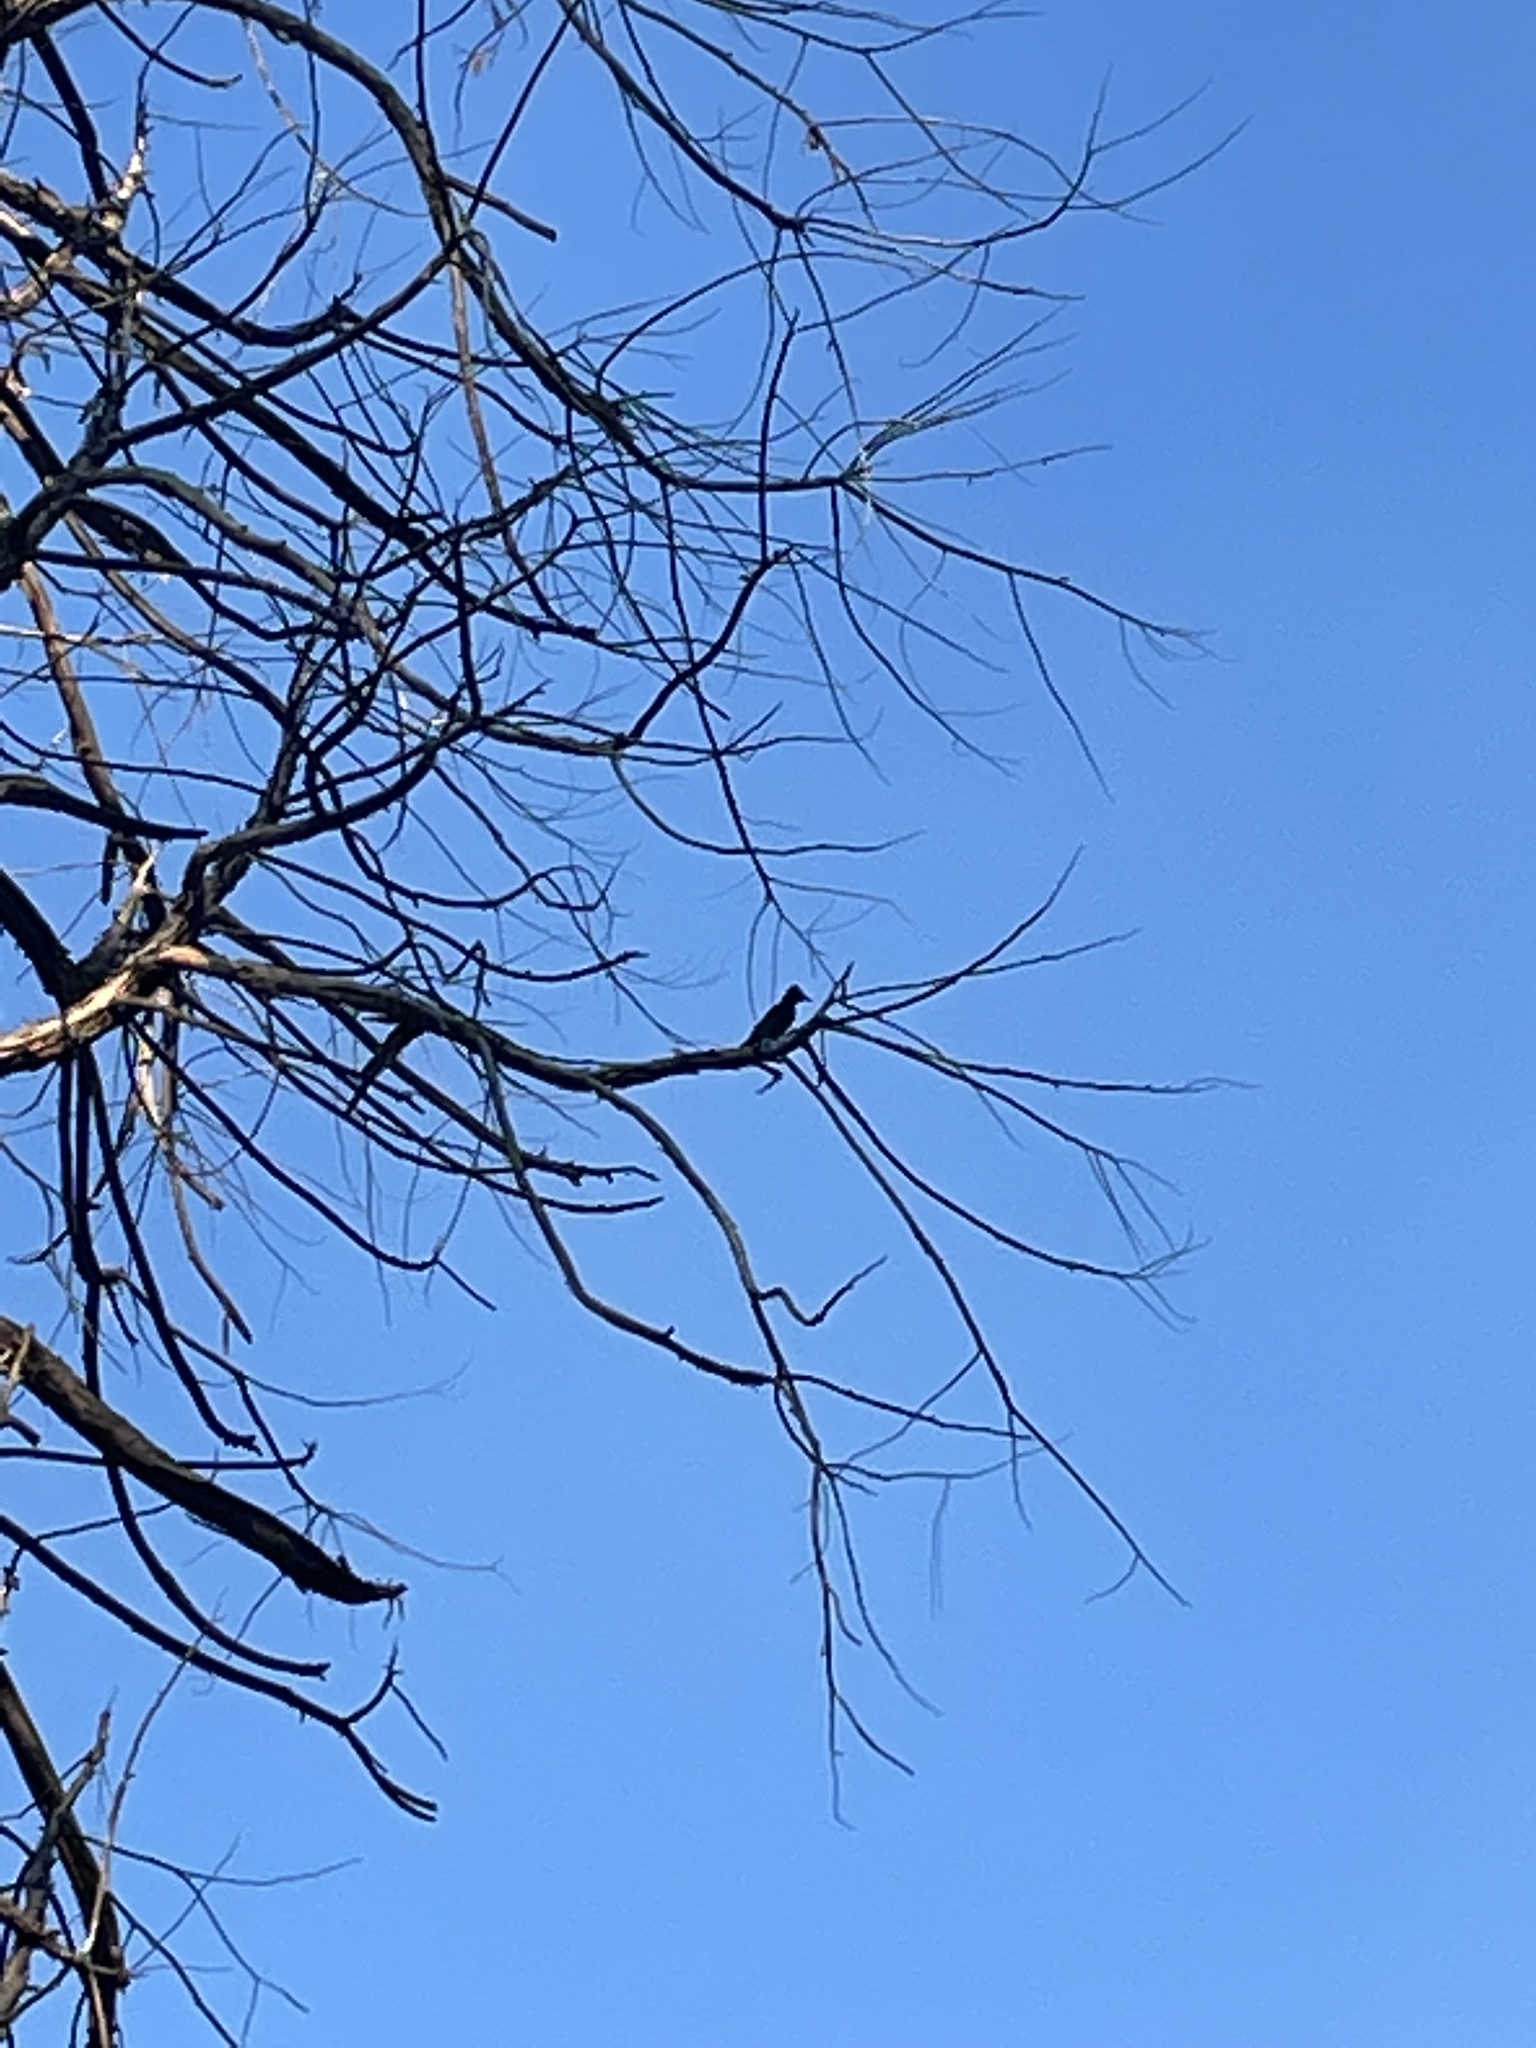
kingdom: Animalia
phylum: Chordata
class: Aves
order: Passeriformes
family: Corvidae
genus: Cyanocitta
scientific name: Cyanocitta stelleri
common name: Steller's jay
